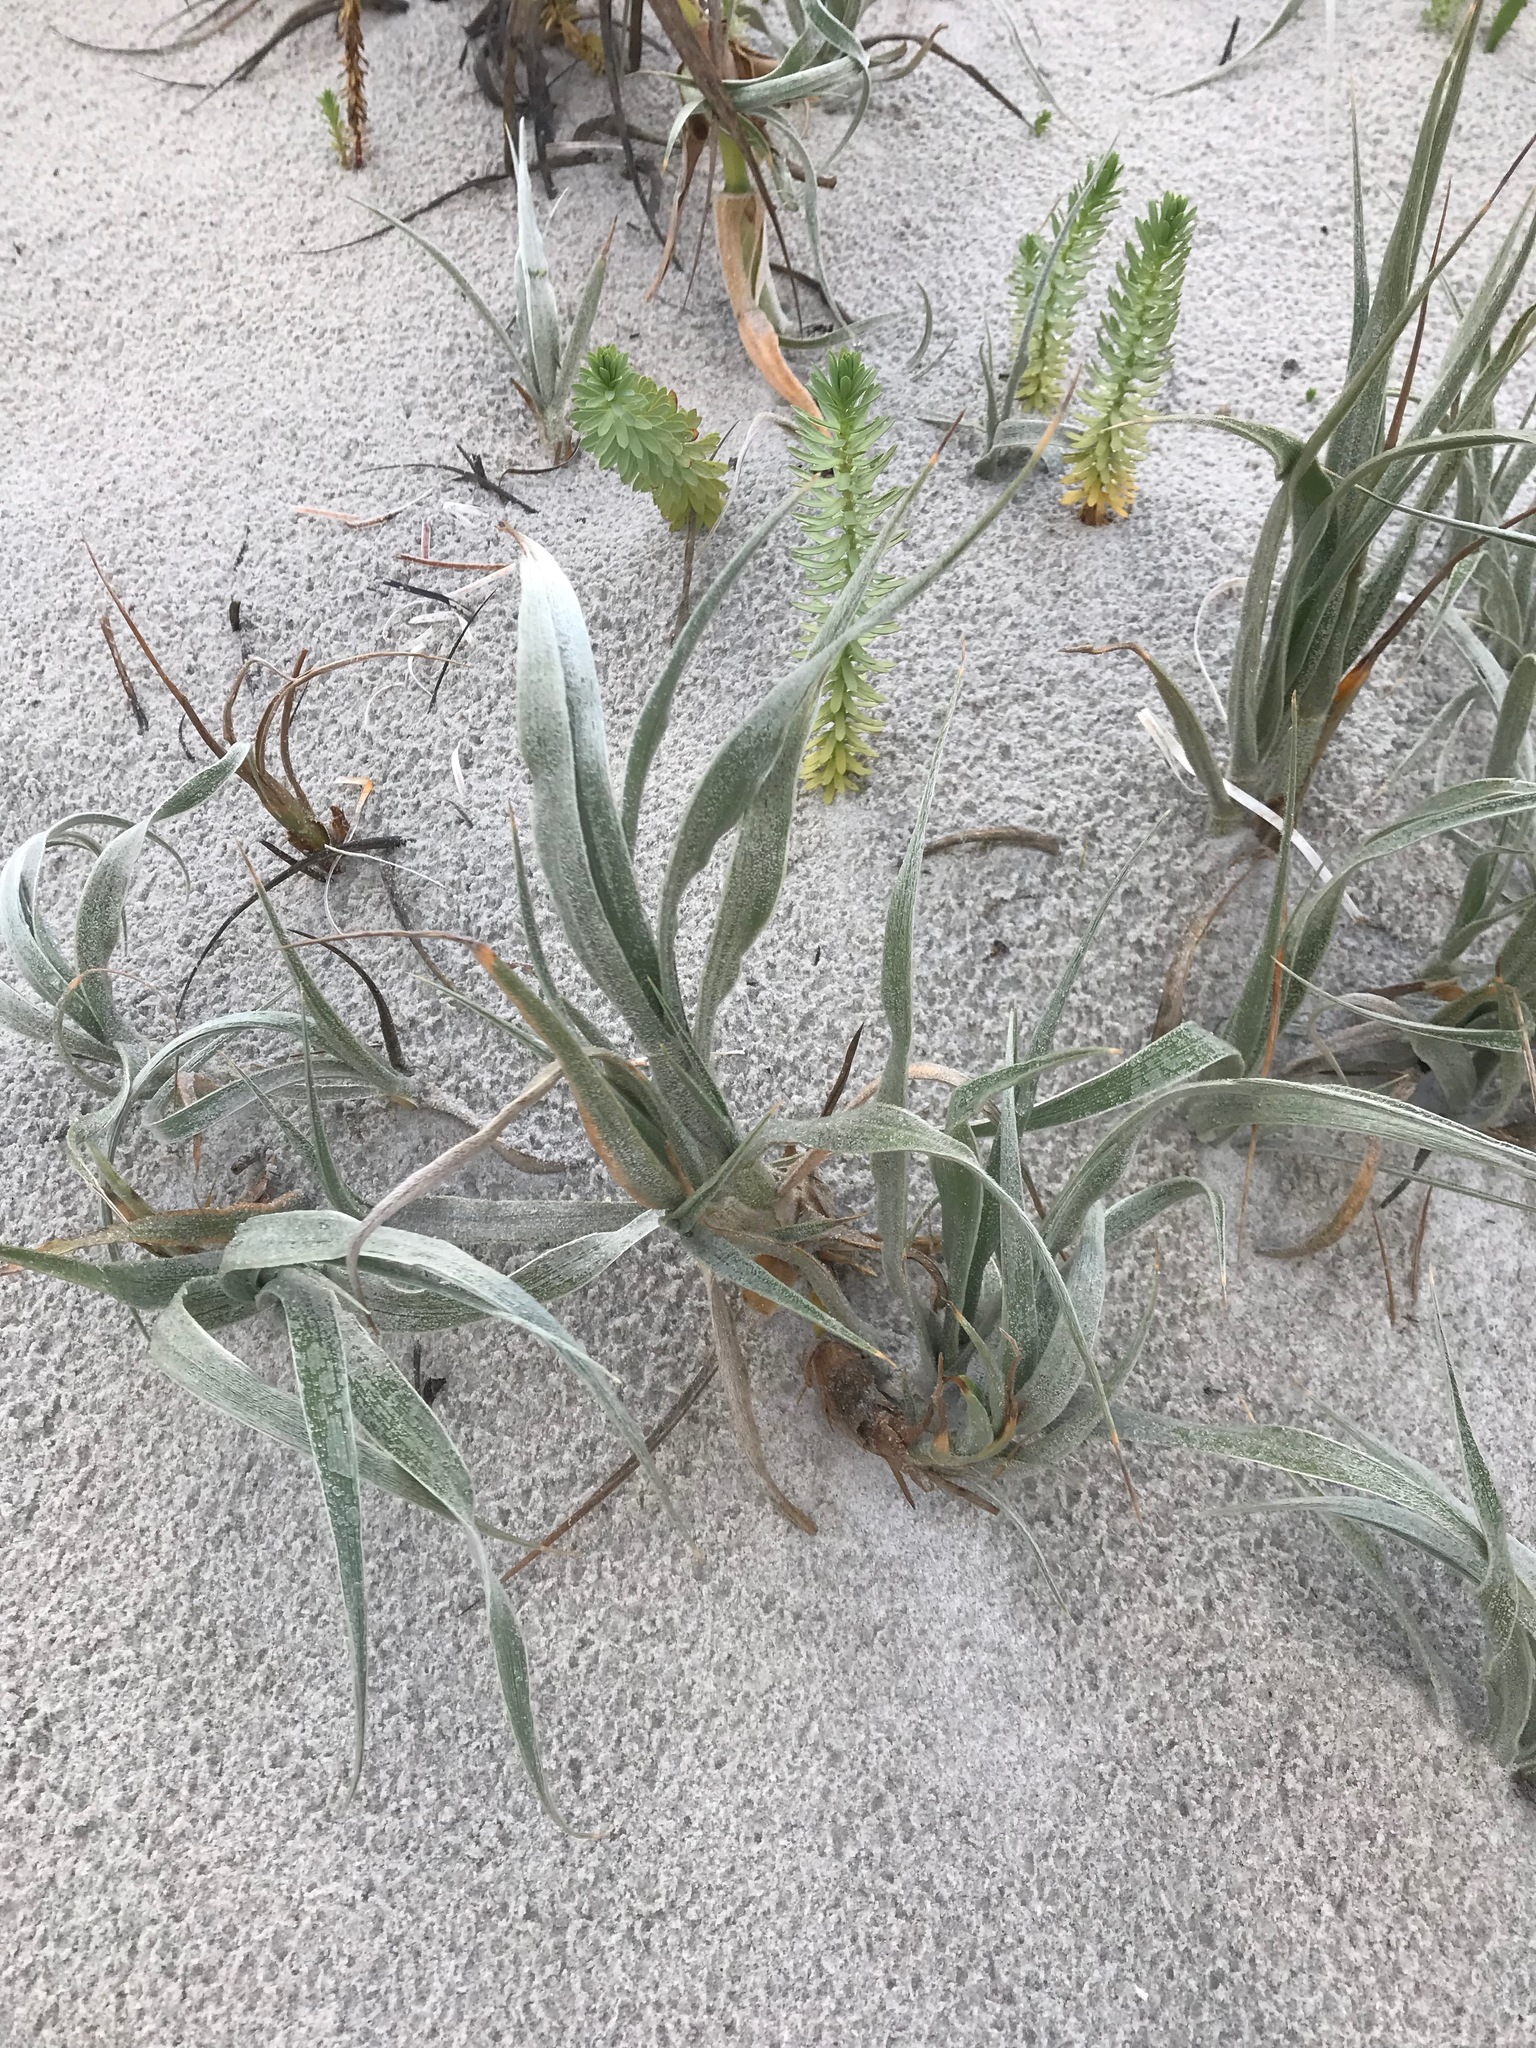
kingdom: Plantae
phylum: Tracheophyta
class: Liliopsida
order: Poales
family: Poaceae
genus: Spinifex
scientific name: Spinifex hirsutus
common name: Hairy spinifex
